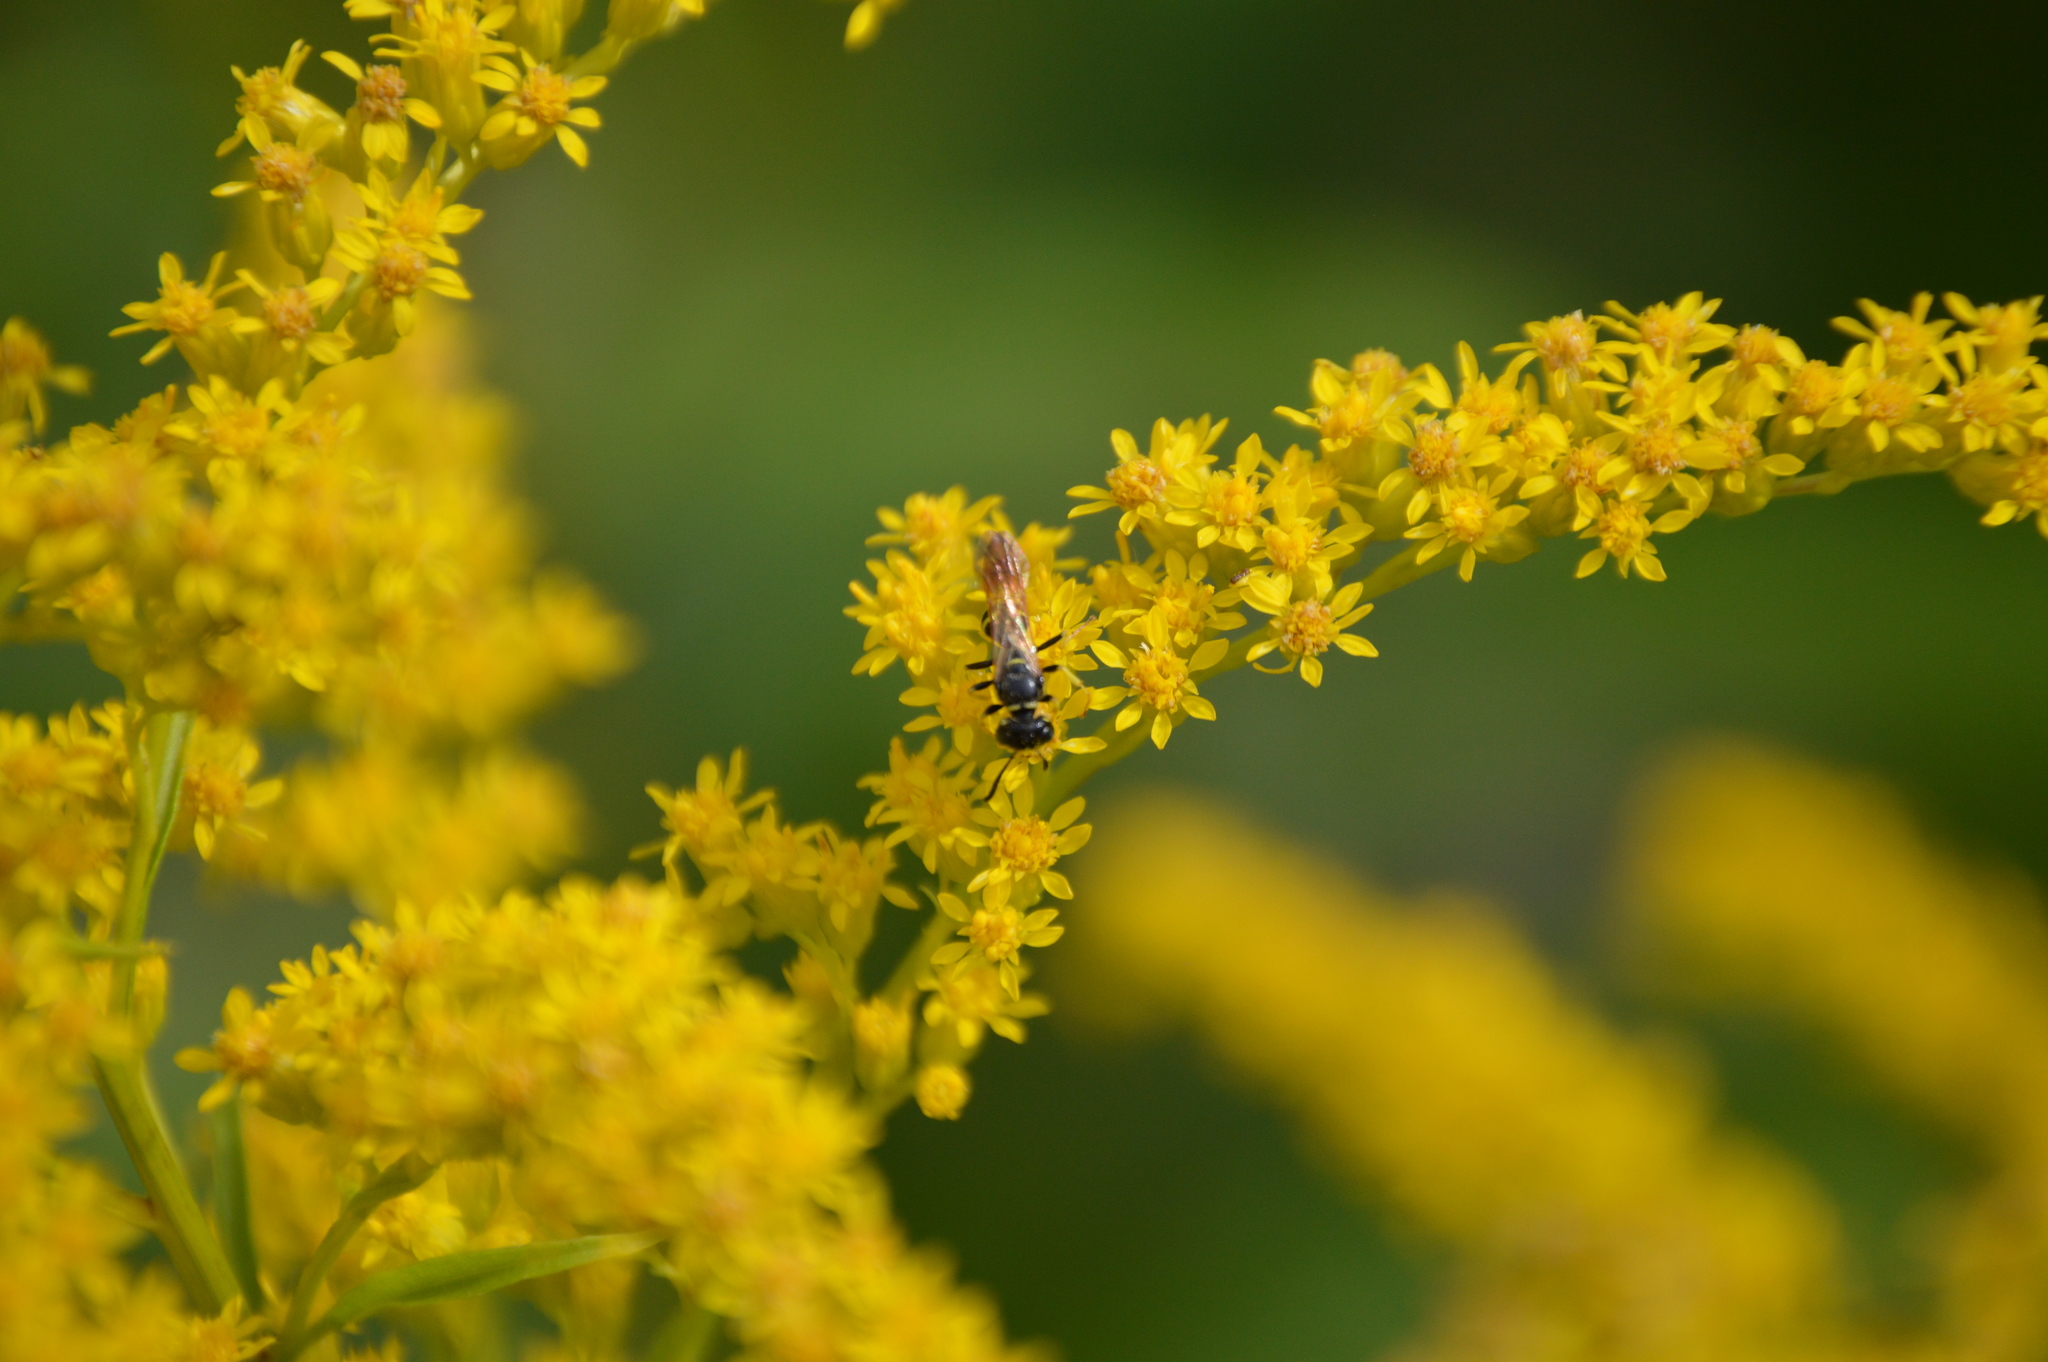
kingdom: Animalia
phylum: Arthropoda
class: Insecta
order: Hymenoptera
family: Crabronidae
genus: Philanthus
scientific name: Philanthus bilunatus
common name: Two moons beewolf
